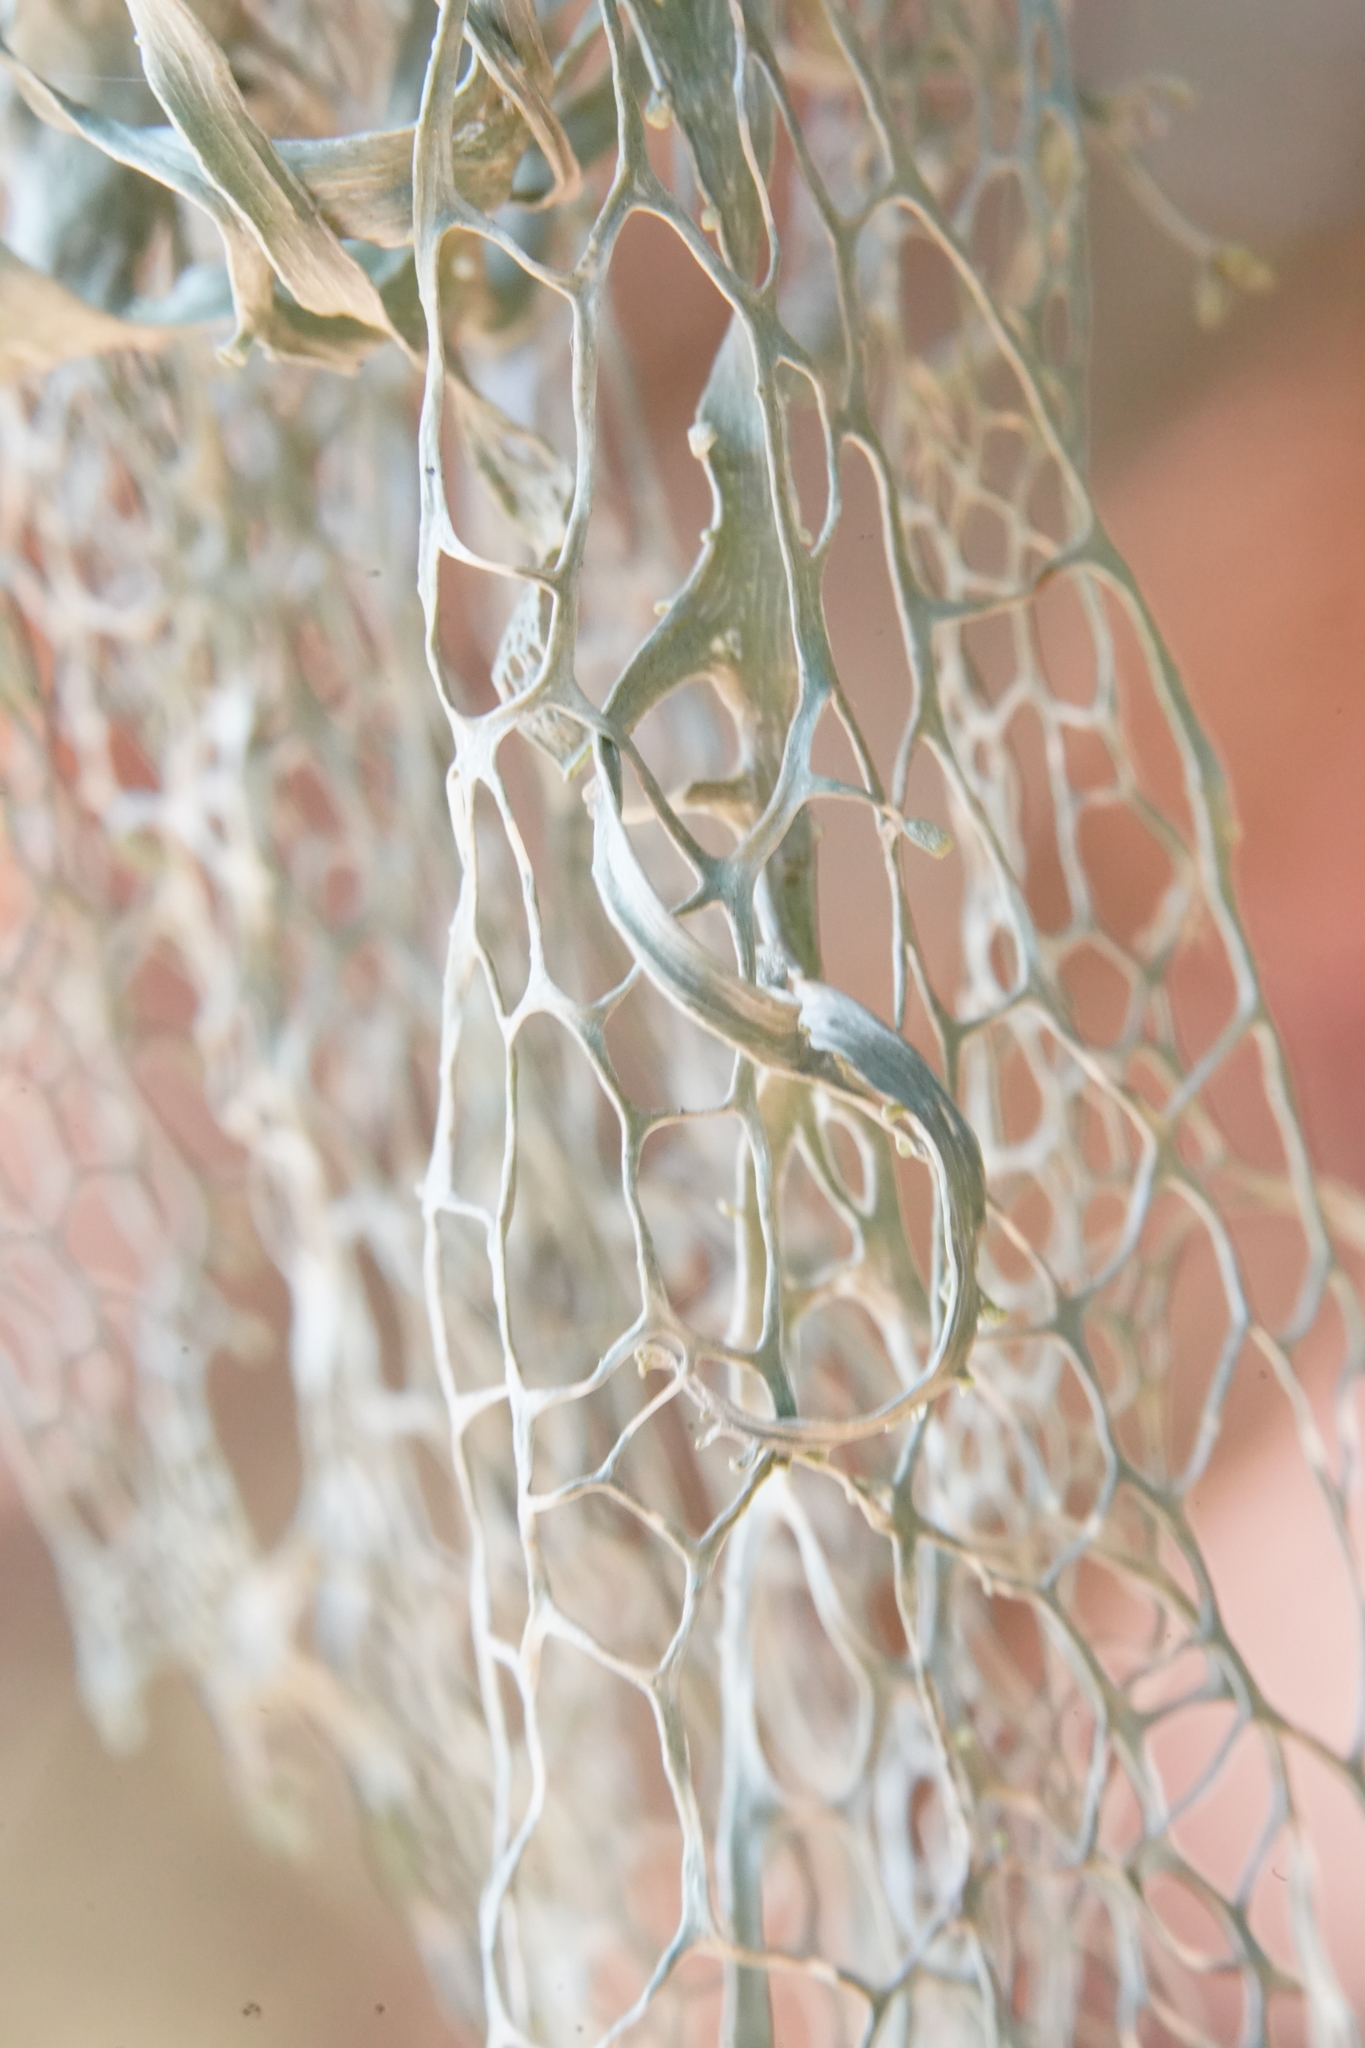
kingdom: Fungi
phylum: Ascomycota
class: Lecanoromycetes
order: Lecanorales
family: Ramalinaceae
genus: Ramalina
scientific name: Ramalina menziesii
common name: Lace lichen
